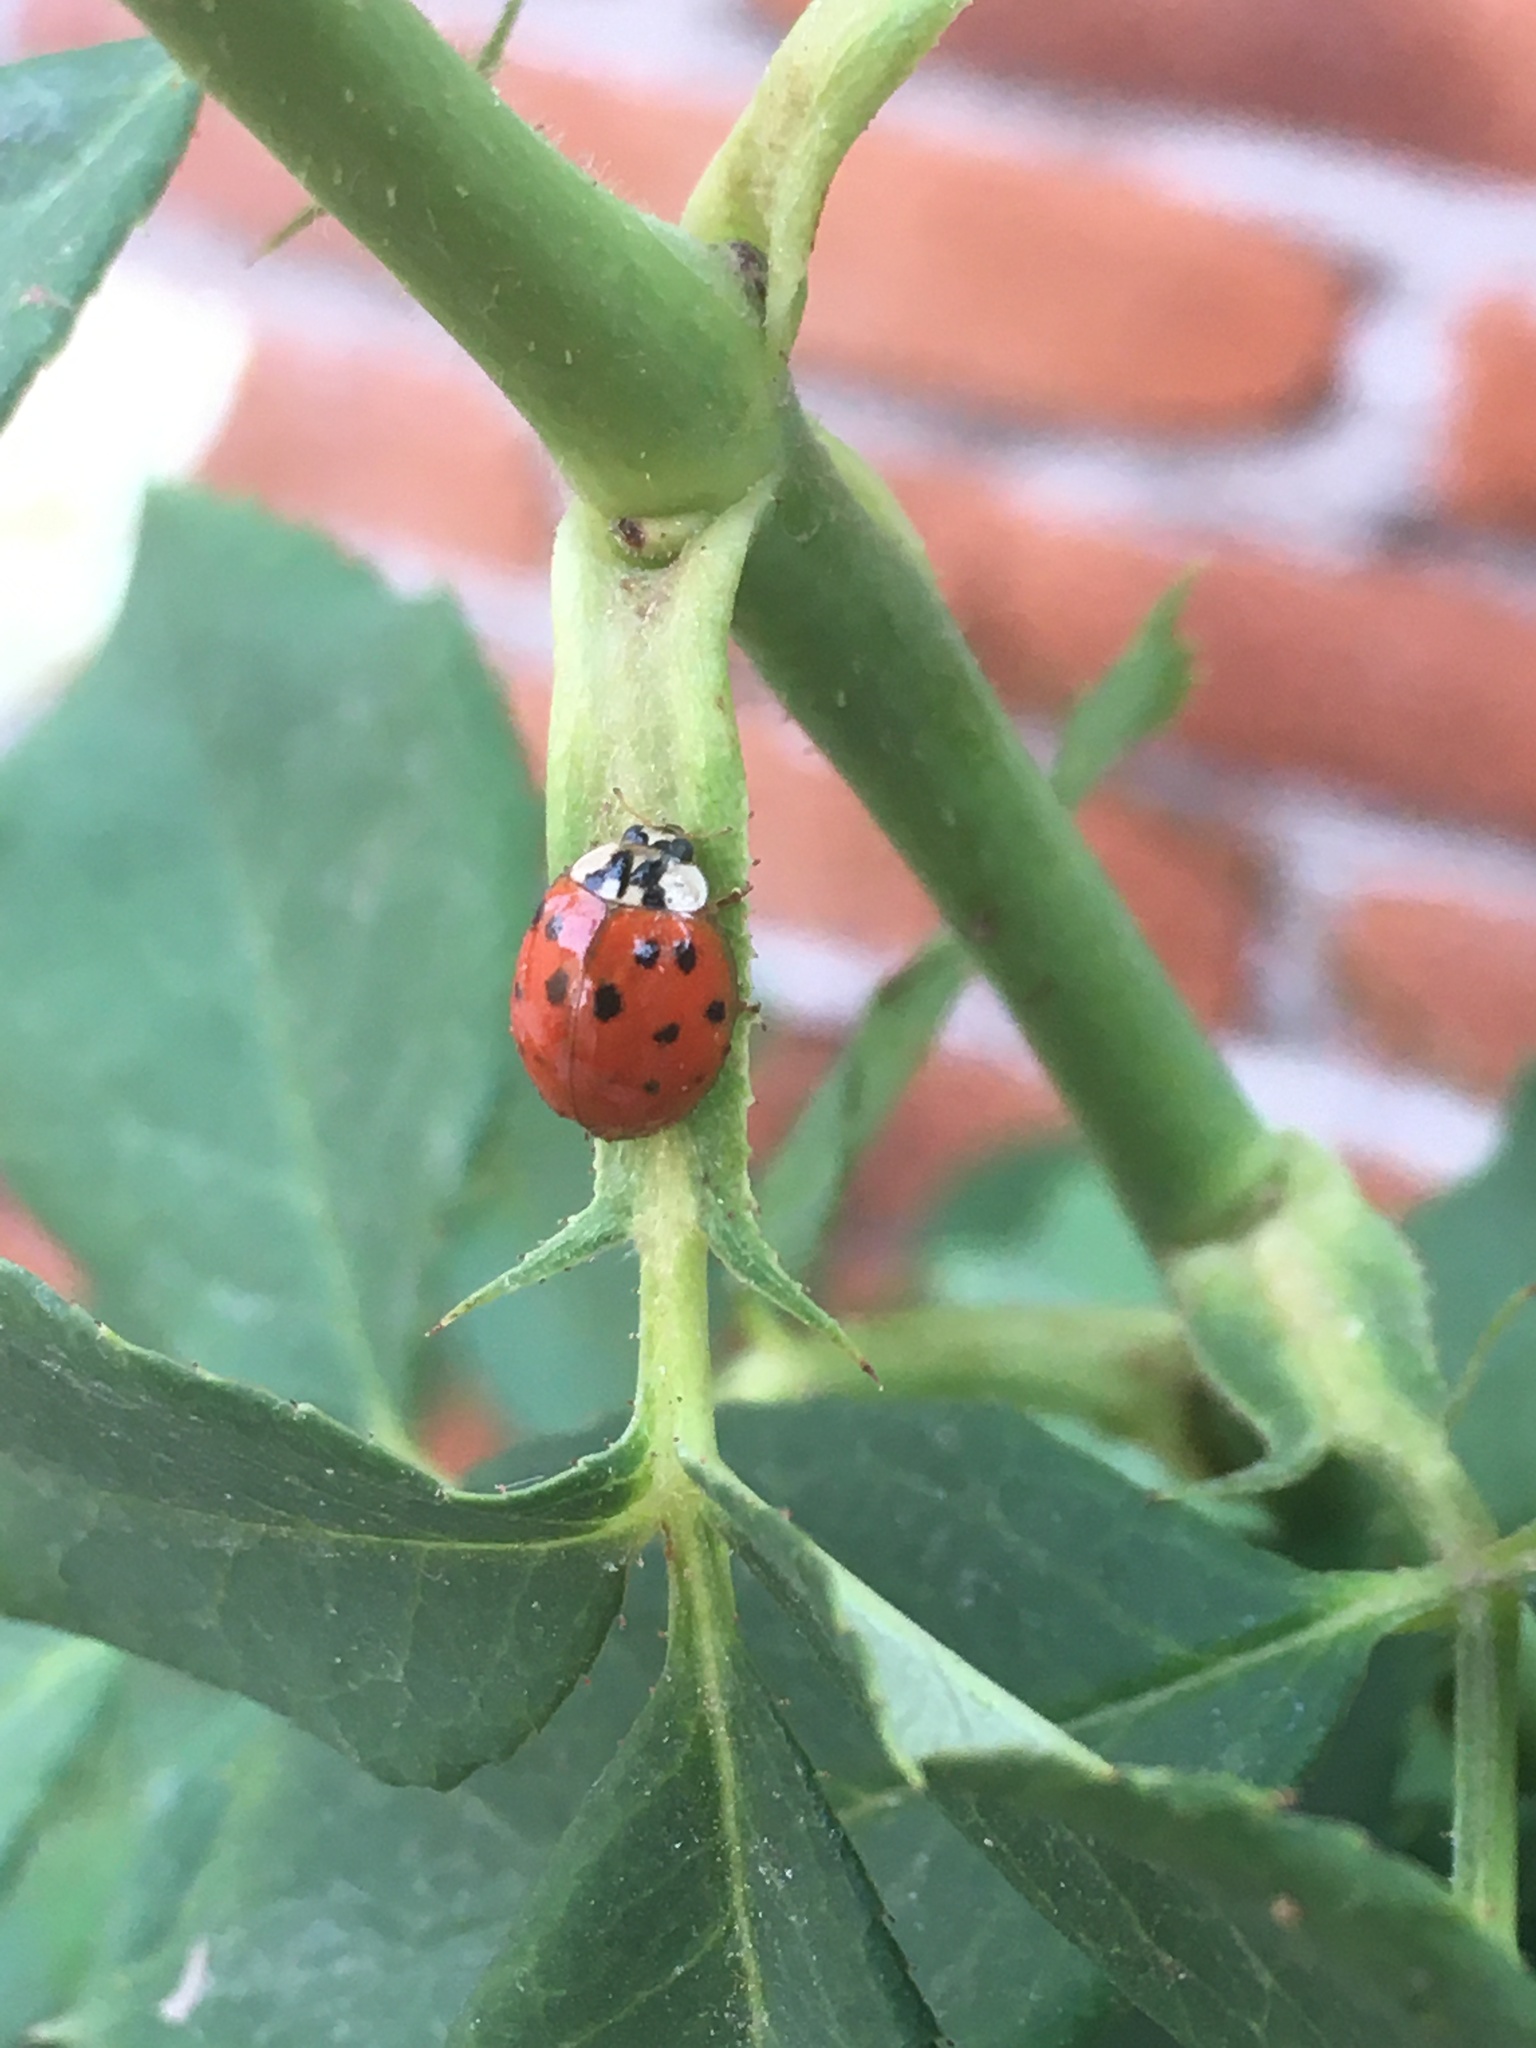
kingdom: Animalia
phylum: Arthropoda
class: Insecta
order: Coleoptera
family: Coccinellidae
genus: Harmonia
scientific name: Harmonia axyridis
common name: Harlequin ladybird
